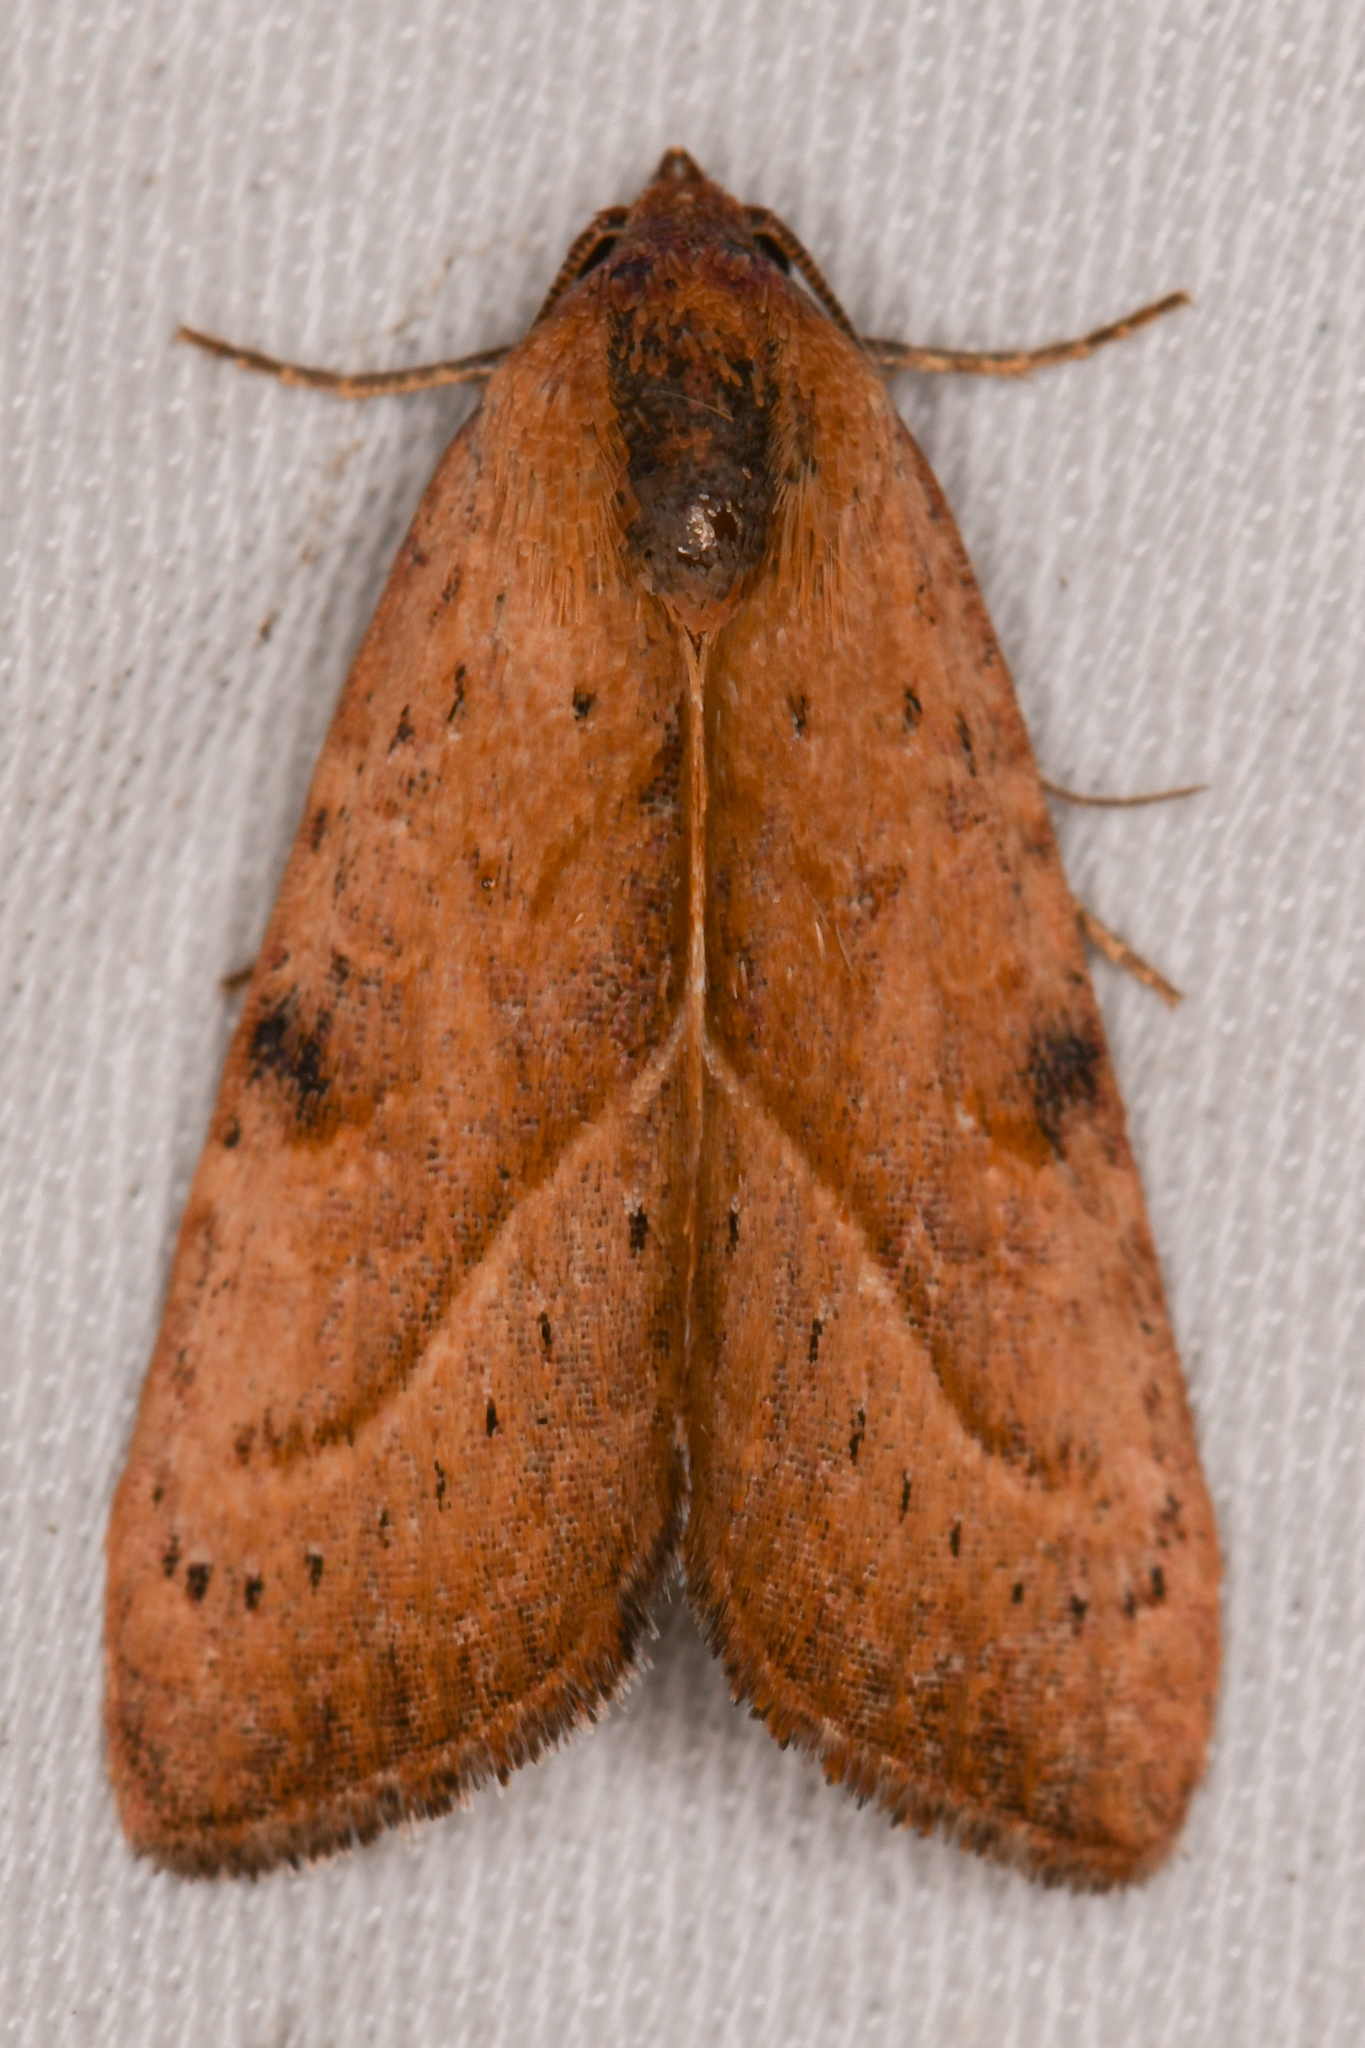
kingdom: Animalia
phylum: Arthropoda
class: Insecta
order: Lepidoptera
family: Noctuidae
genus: Galgula
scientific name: Galgula partita
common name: Wedgeling
